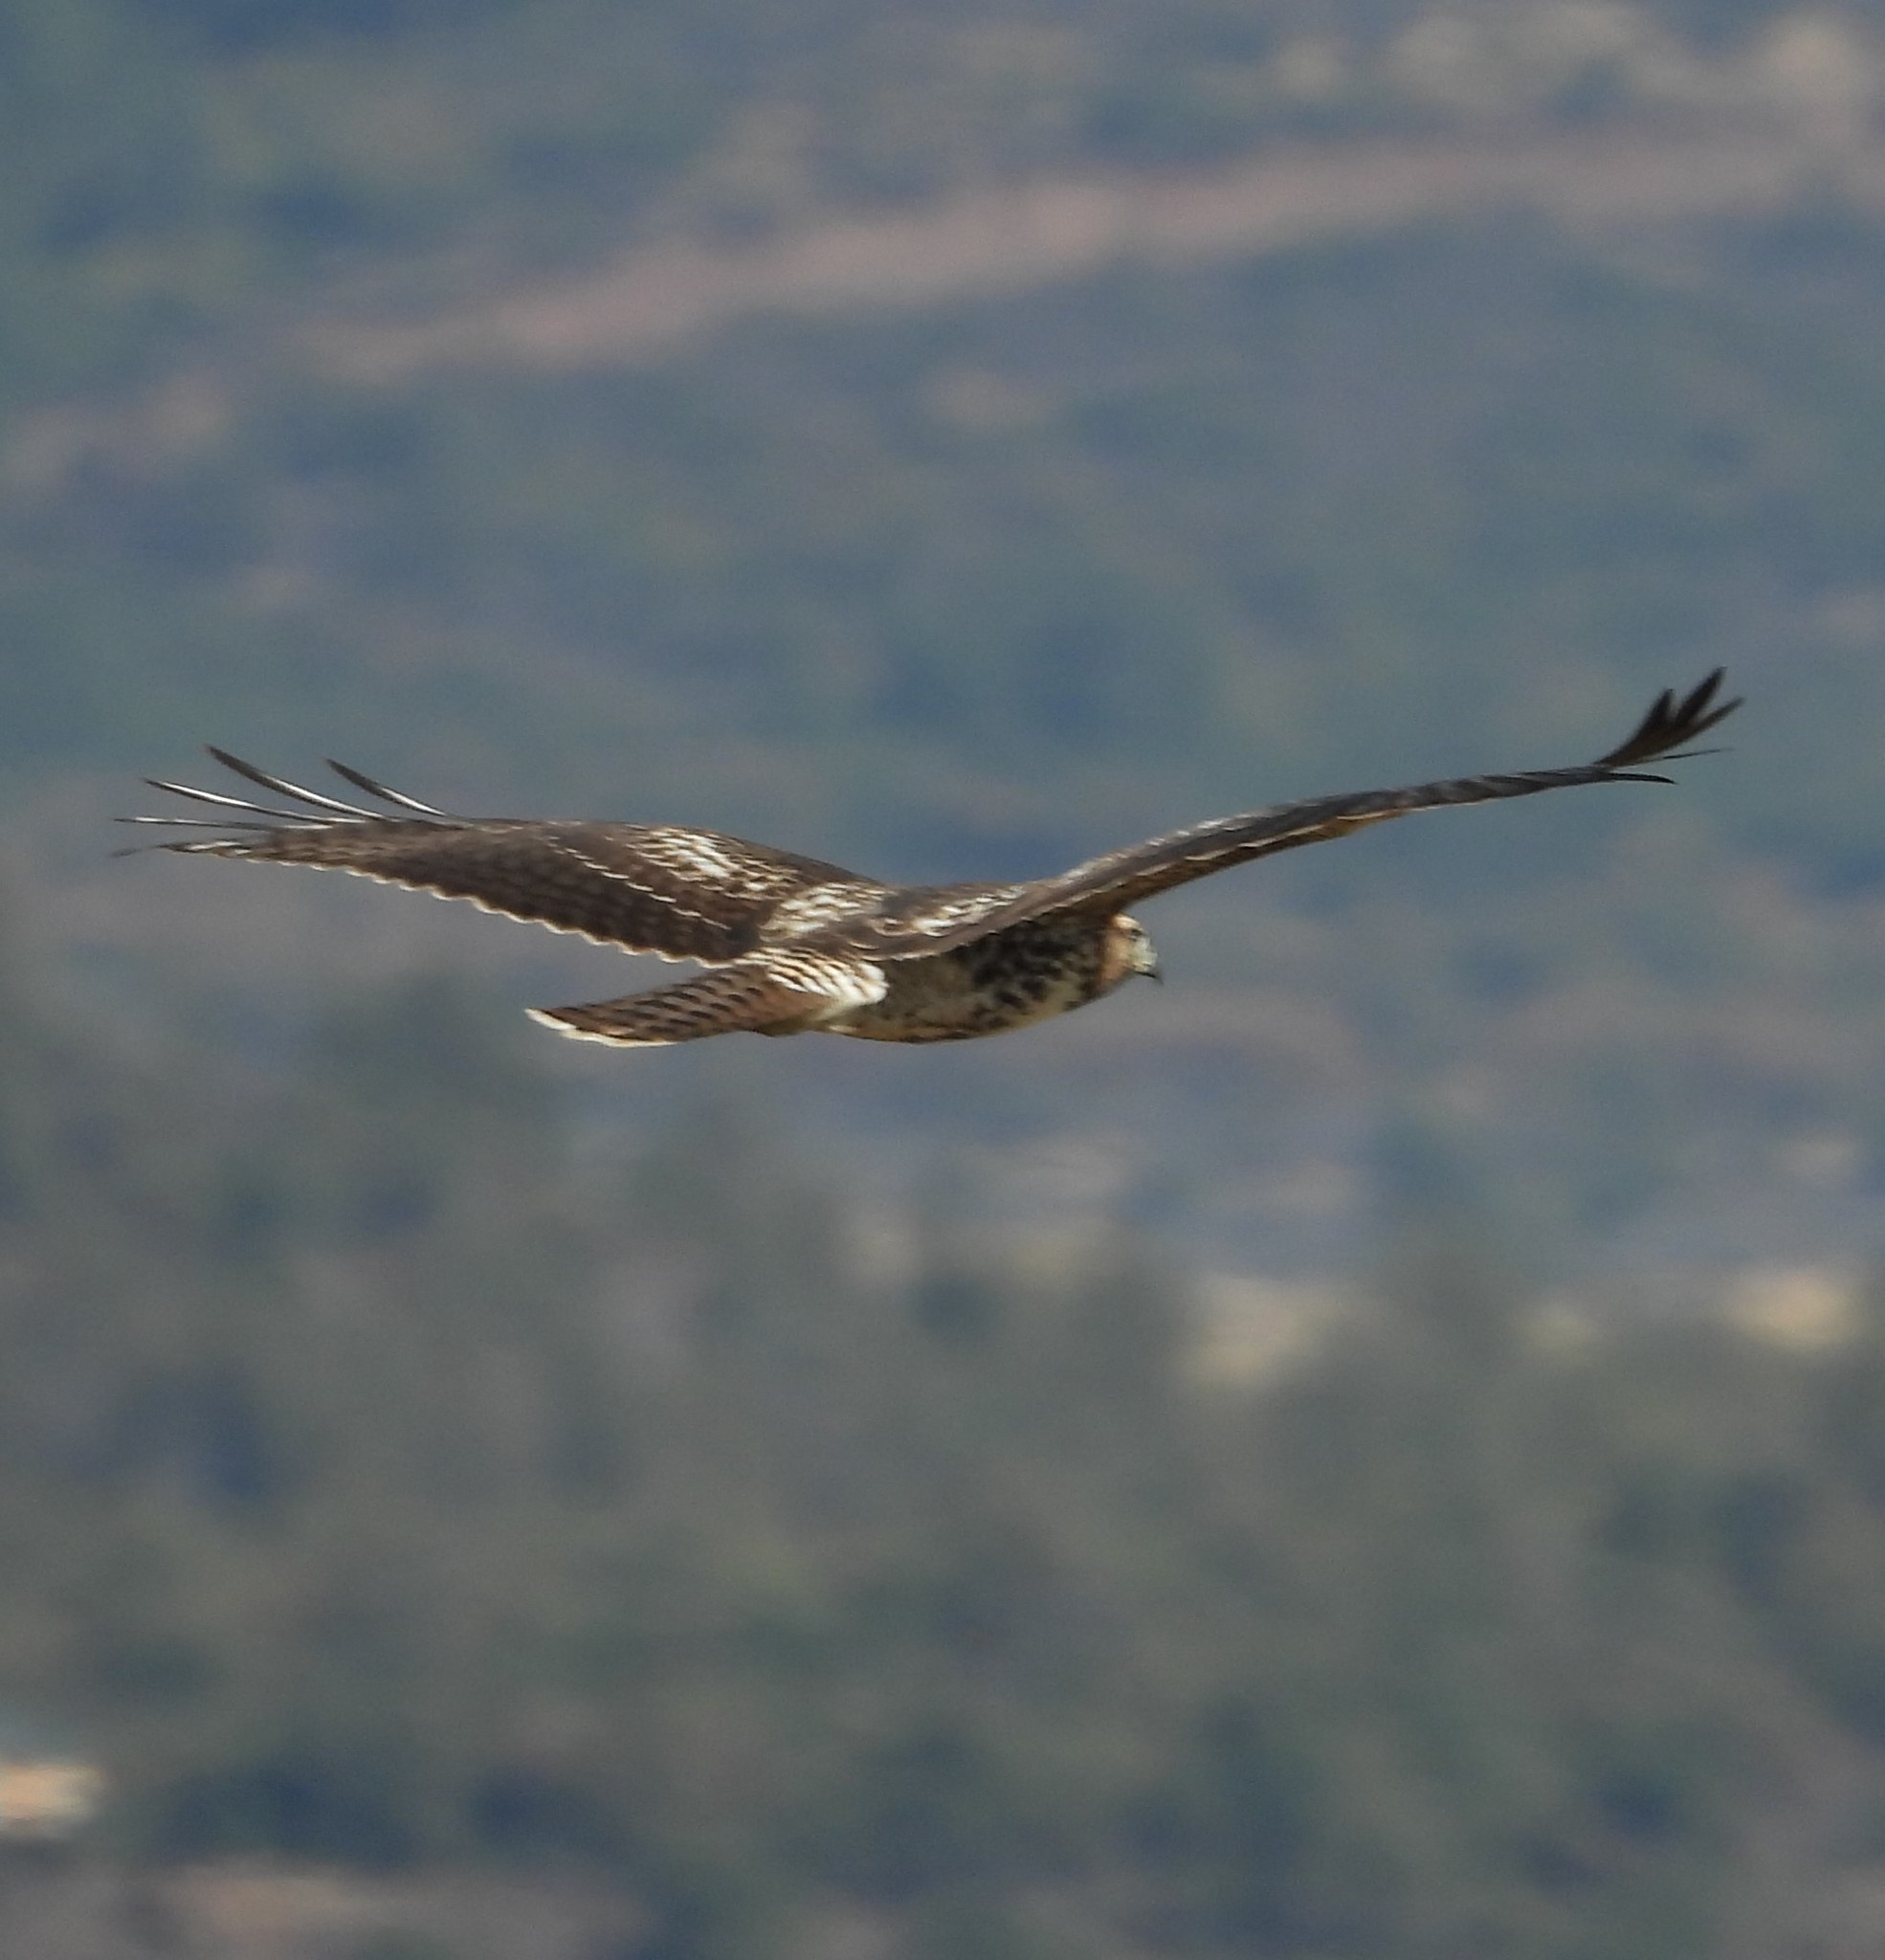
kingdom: Animalia
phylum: Chordata
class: Aves
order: Accipitriformes
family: Accipitridae
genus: Buteo
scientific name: Buteo jamaicensis
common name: Red-tailed hawk
